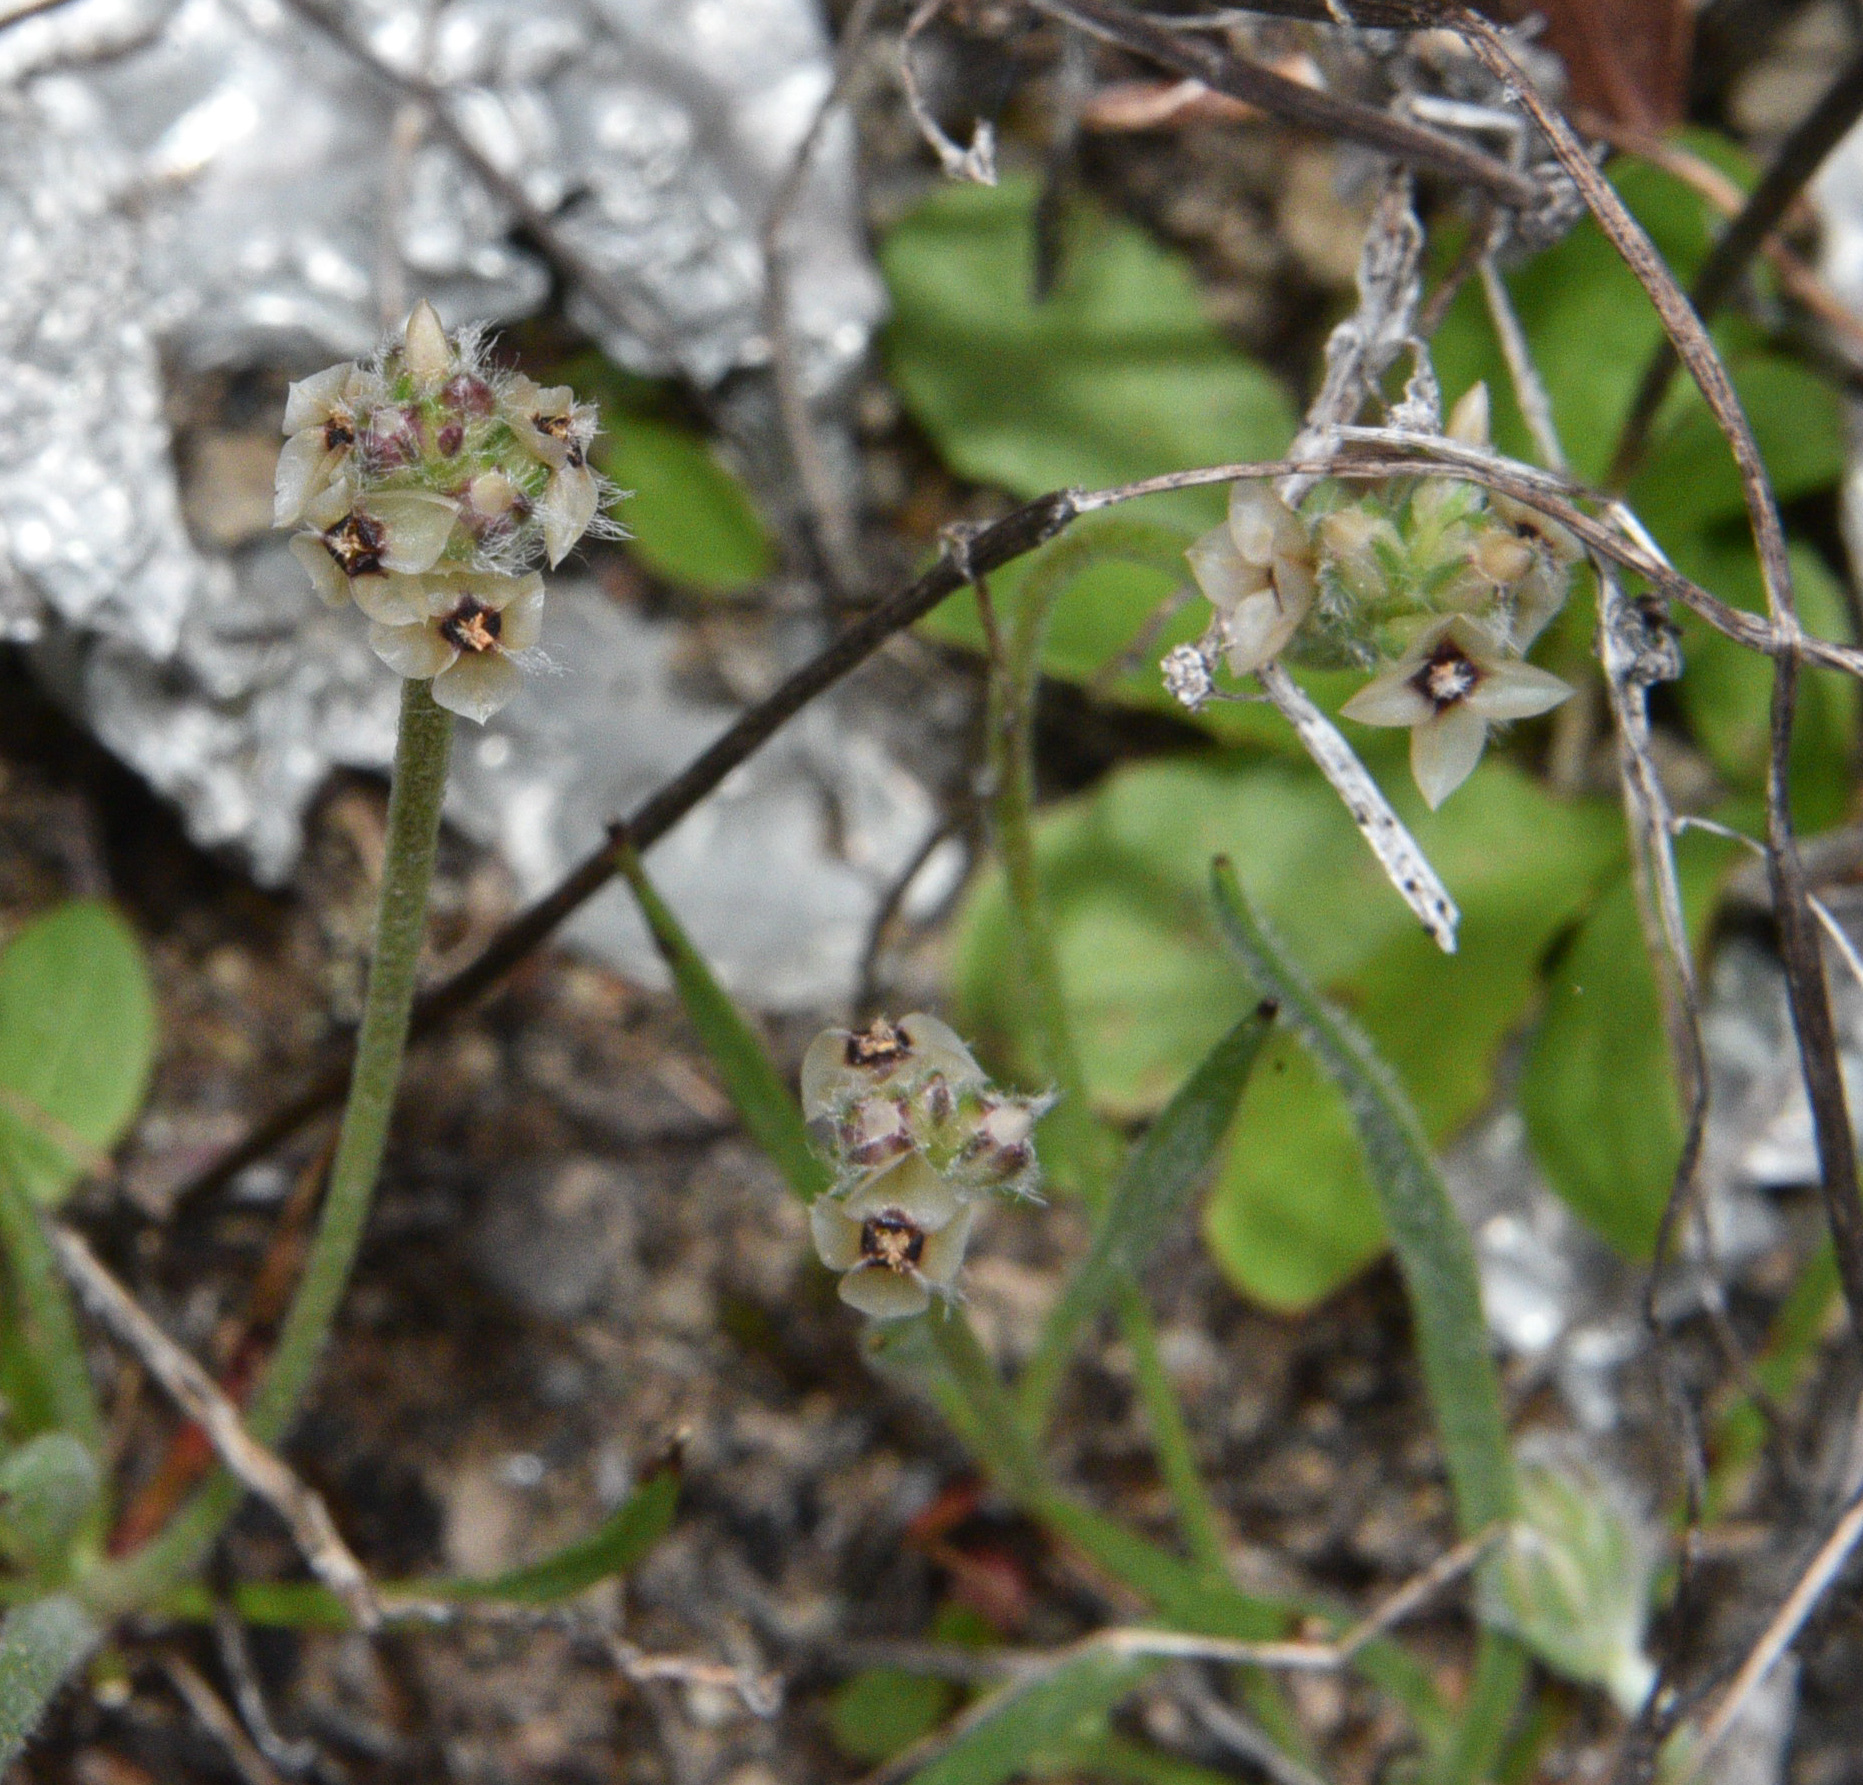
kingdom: Plantae
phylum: Tracheophyta
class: Magnoliopsida
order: Lamiales
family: Plantaginaceae
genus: Plantago
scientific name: Plantago erecta
